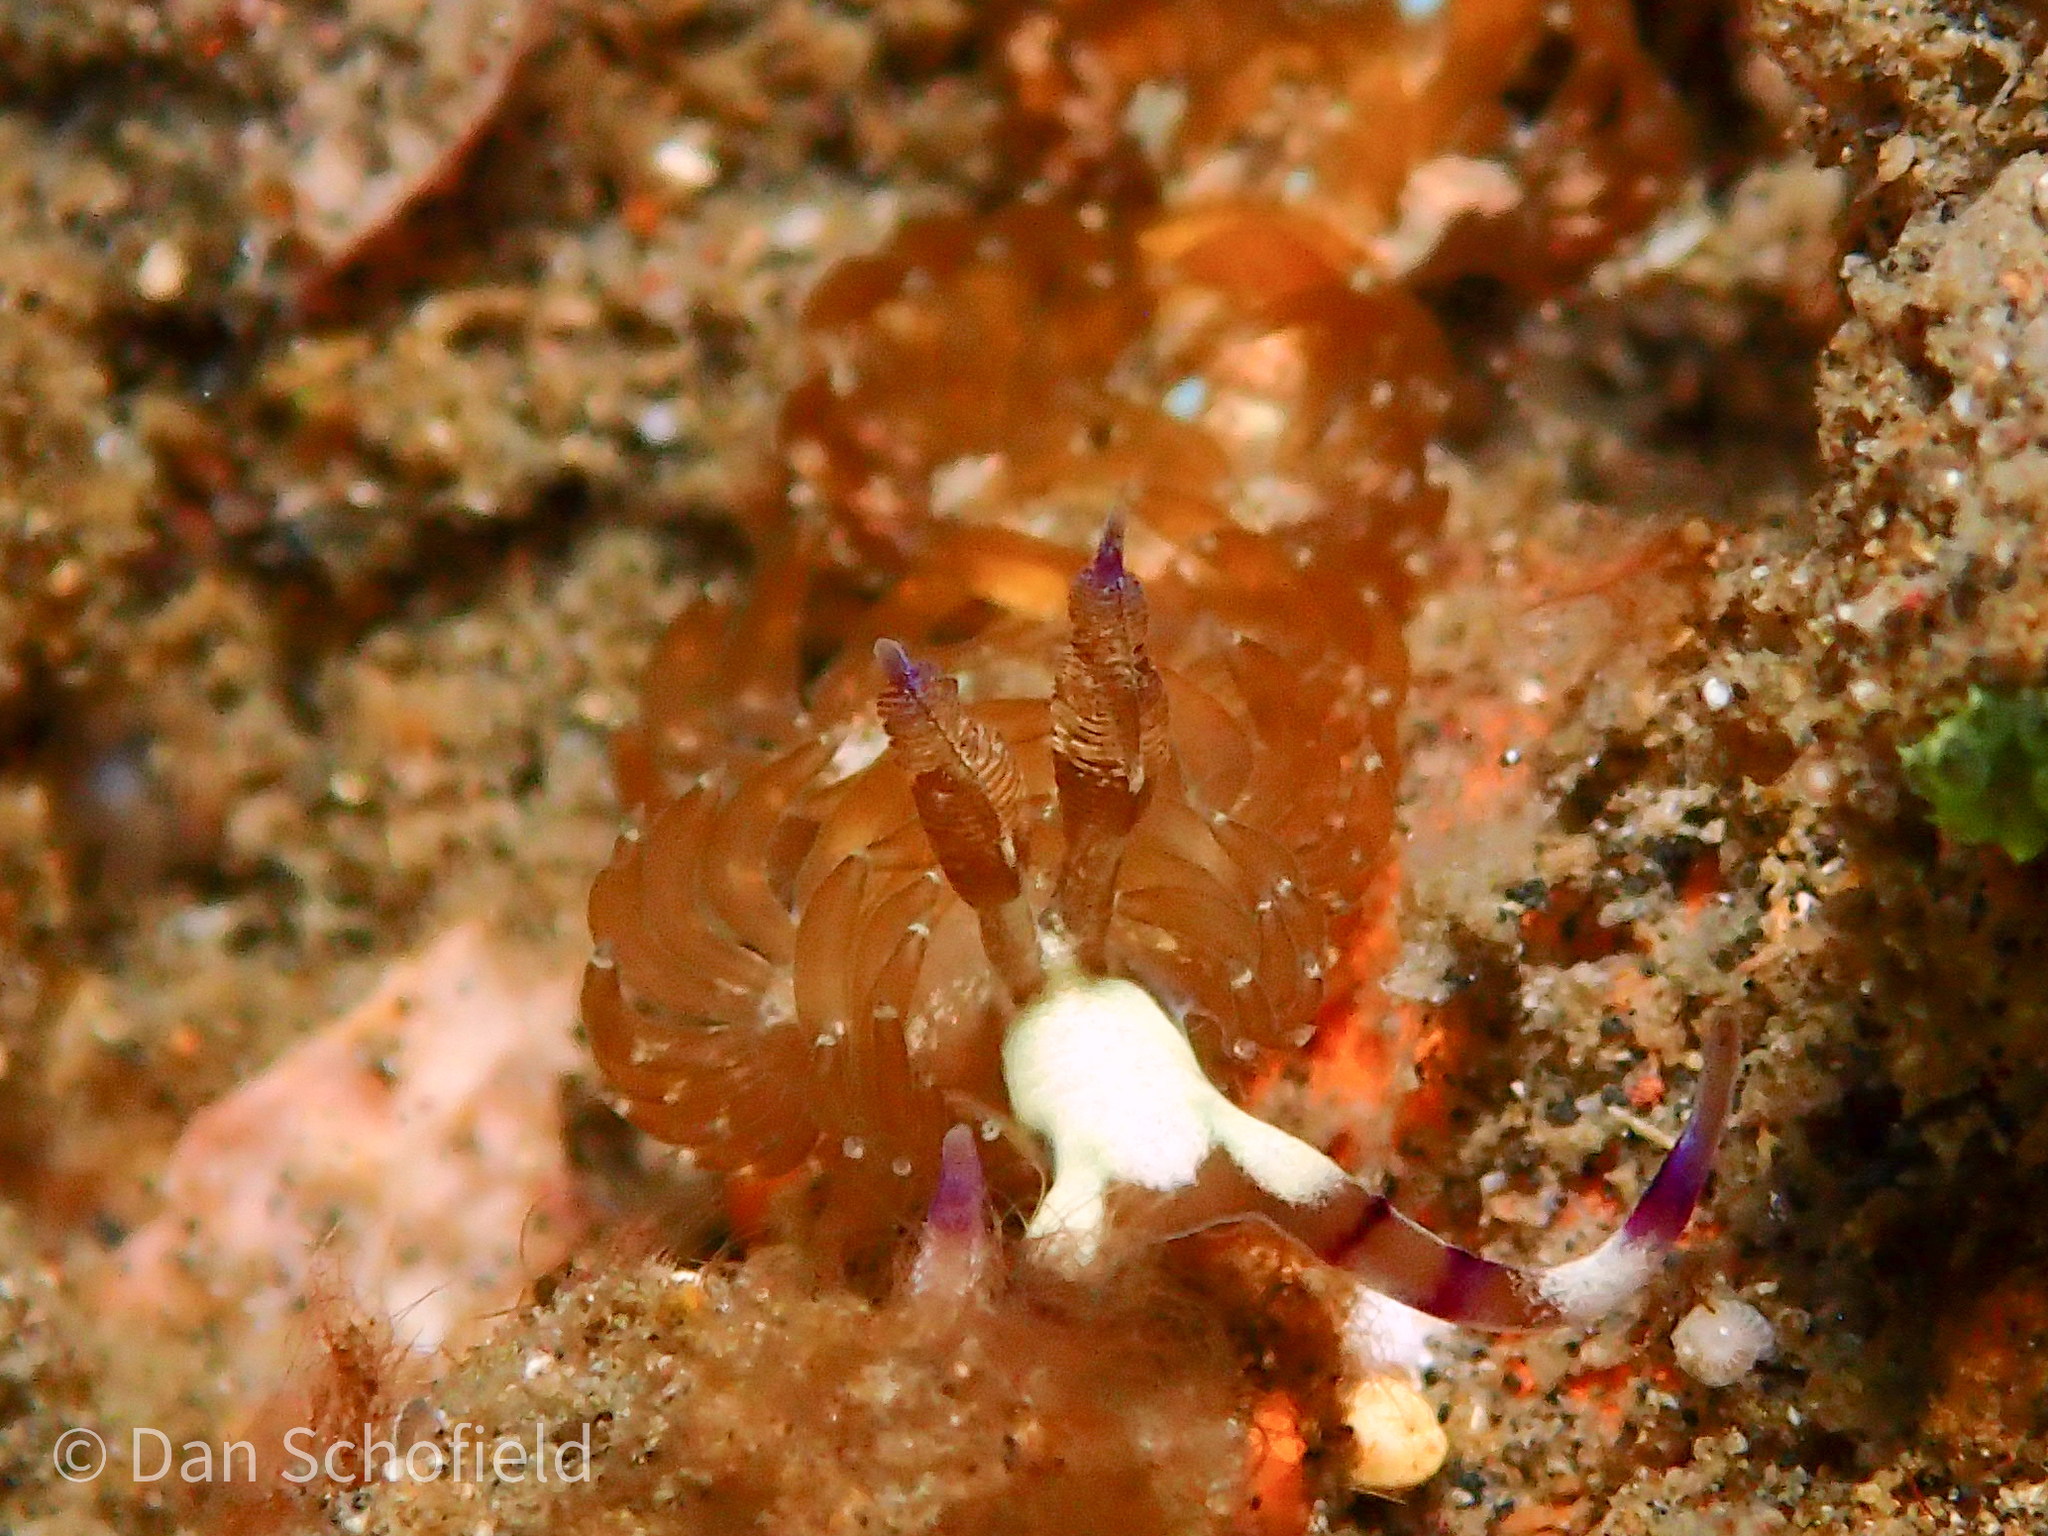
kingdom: Animalia
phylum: Mollusca
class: Gastropoda
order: Nudibranchia
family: Facelinidae
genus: Pteraeolidia
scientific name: Pteraeolidia semperi
